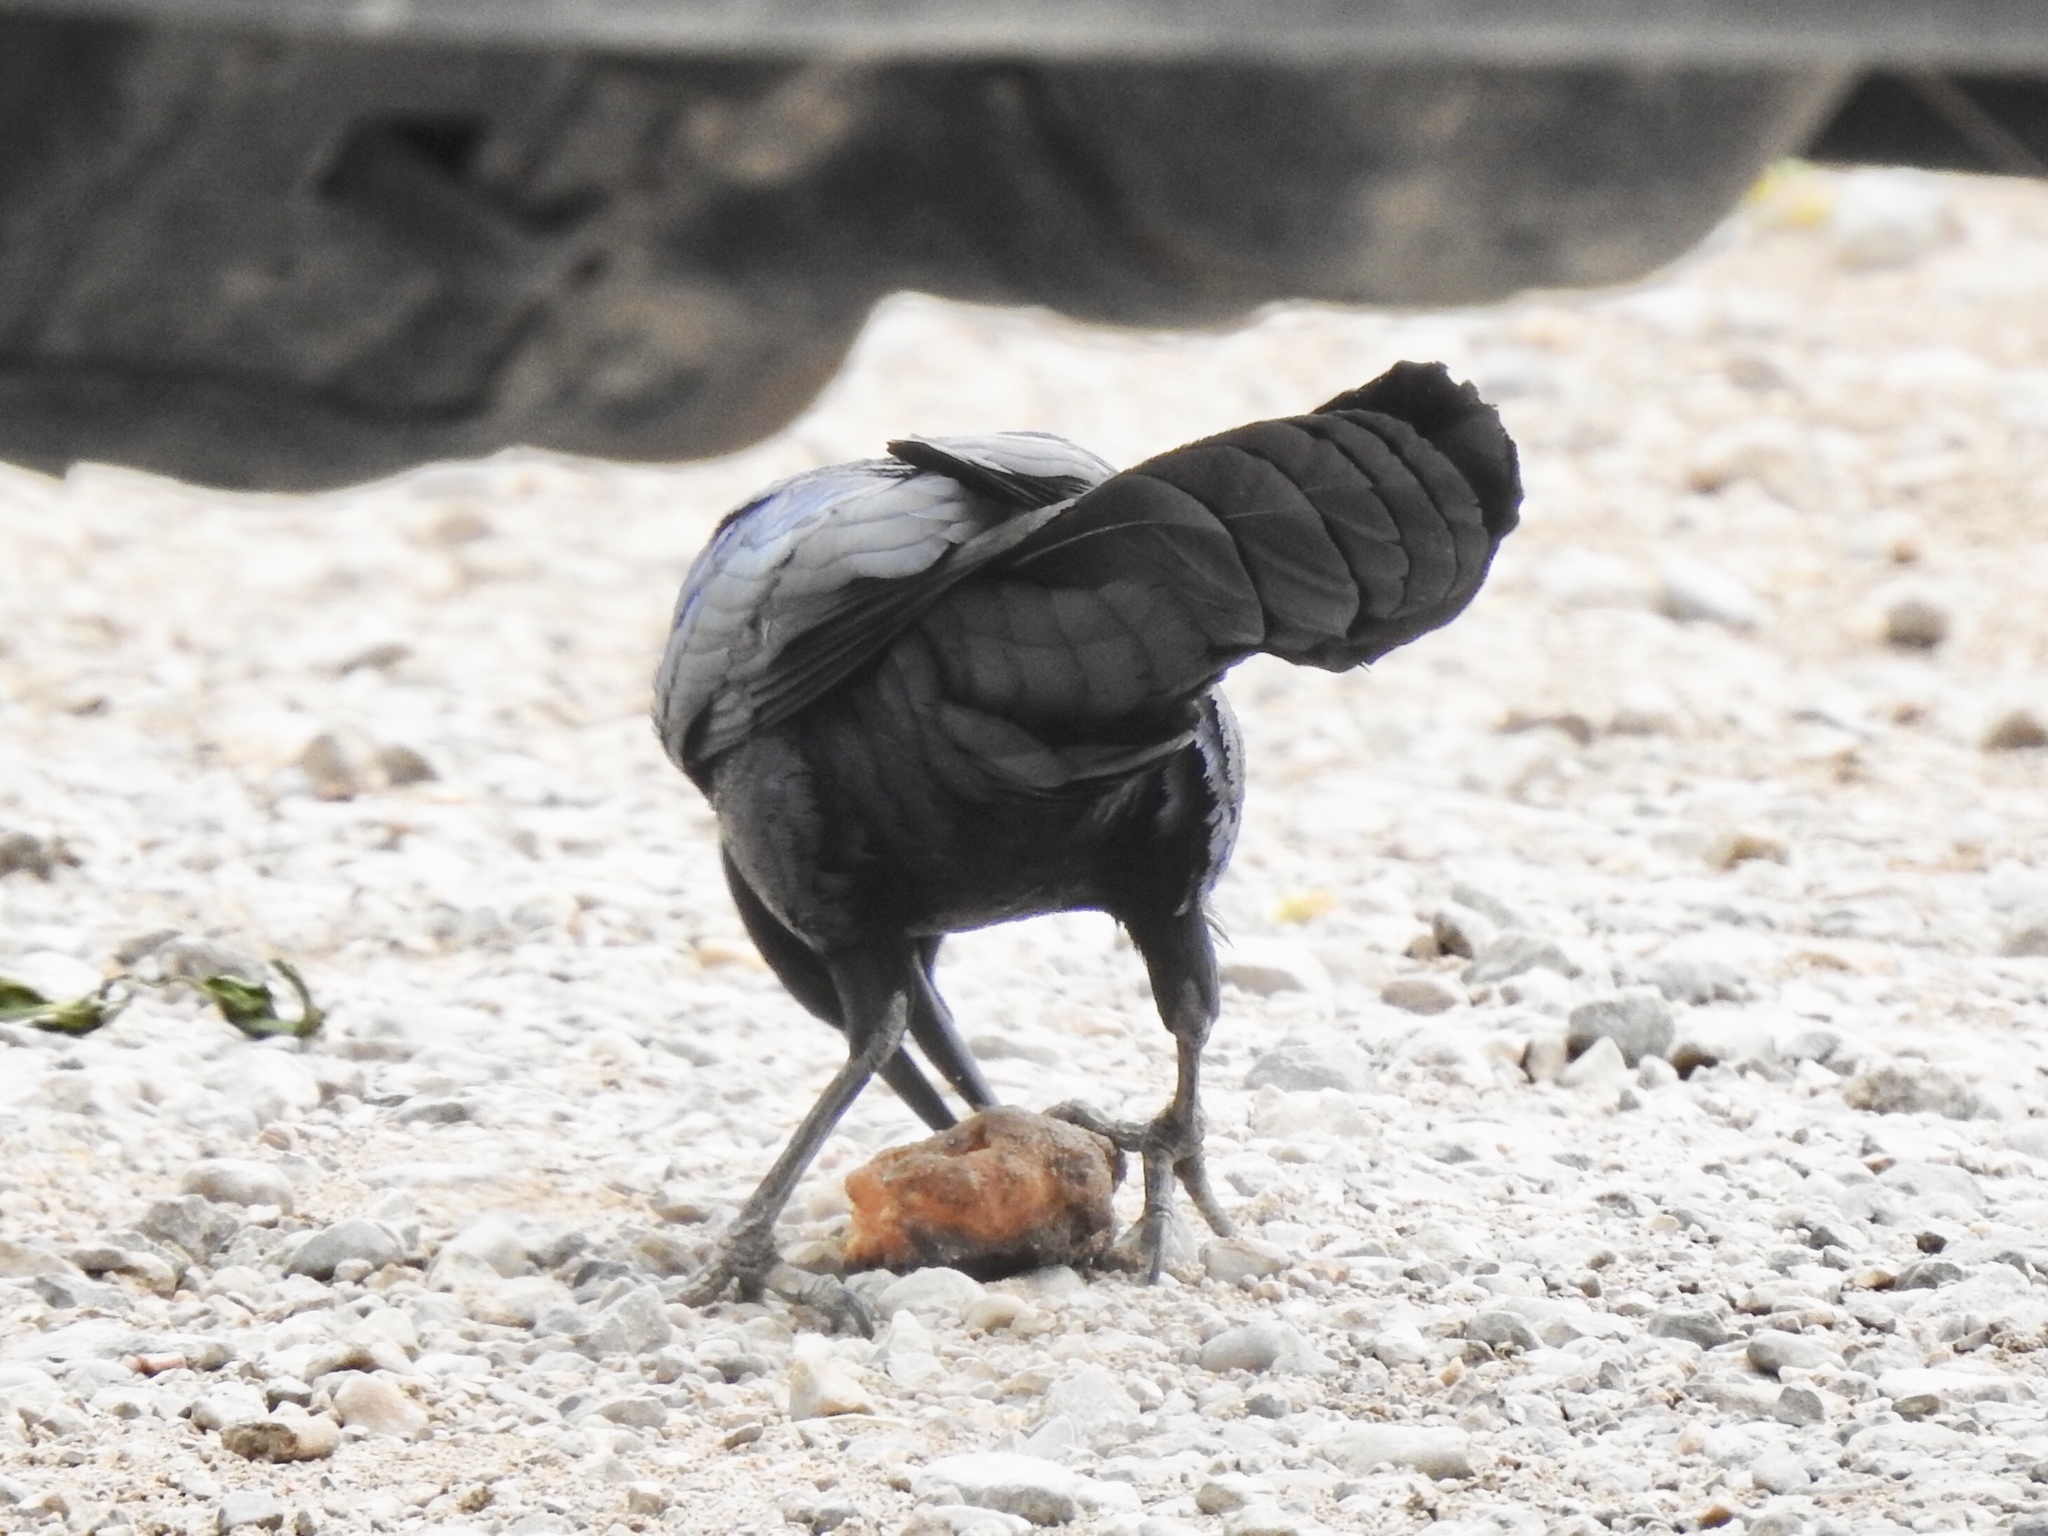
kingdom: Animalia
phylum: Chordata
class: Aves
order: Passeriformes
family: Icteridae
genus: Quiscalus
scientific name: Quiscalus mexicanus
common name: Great-tailed grackle
